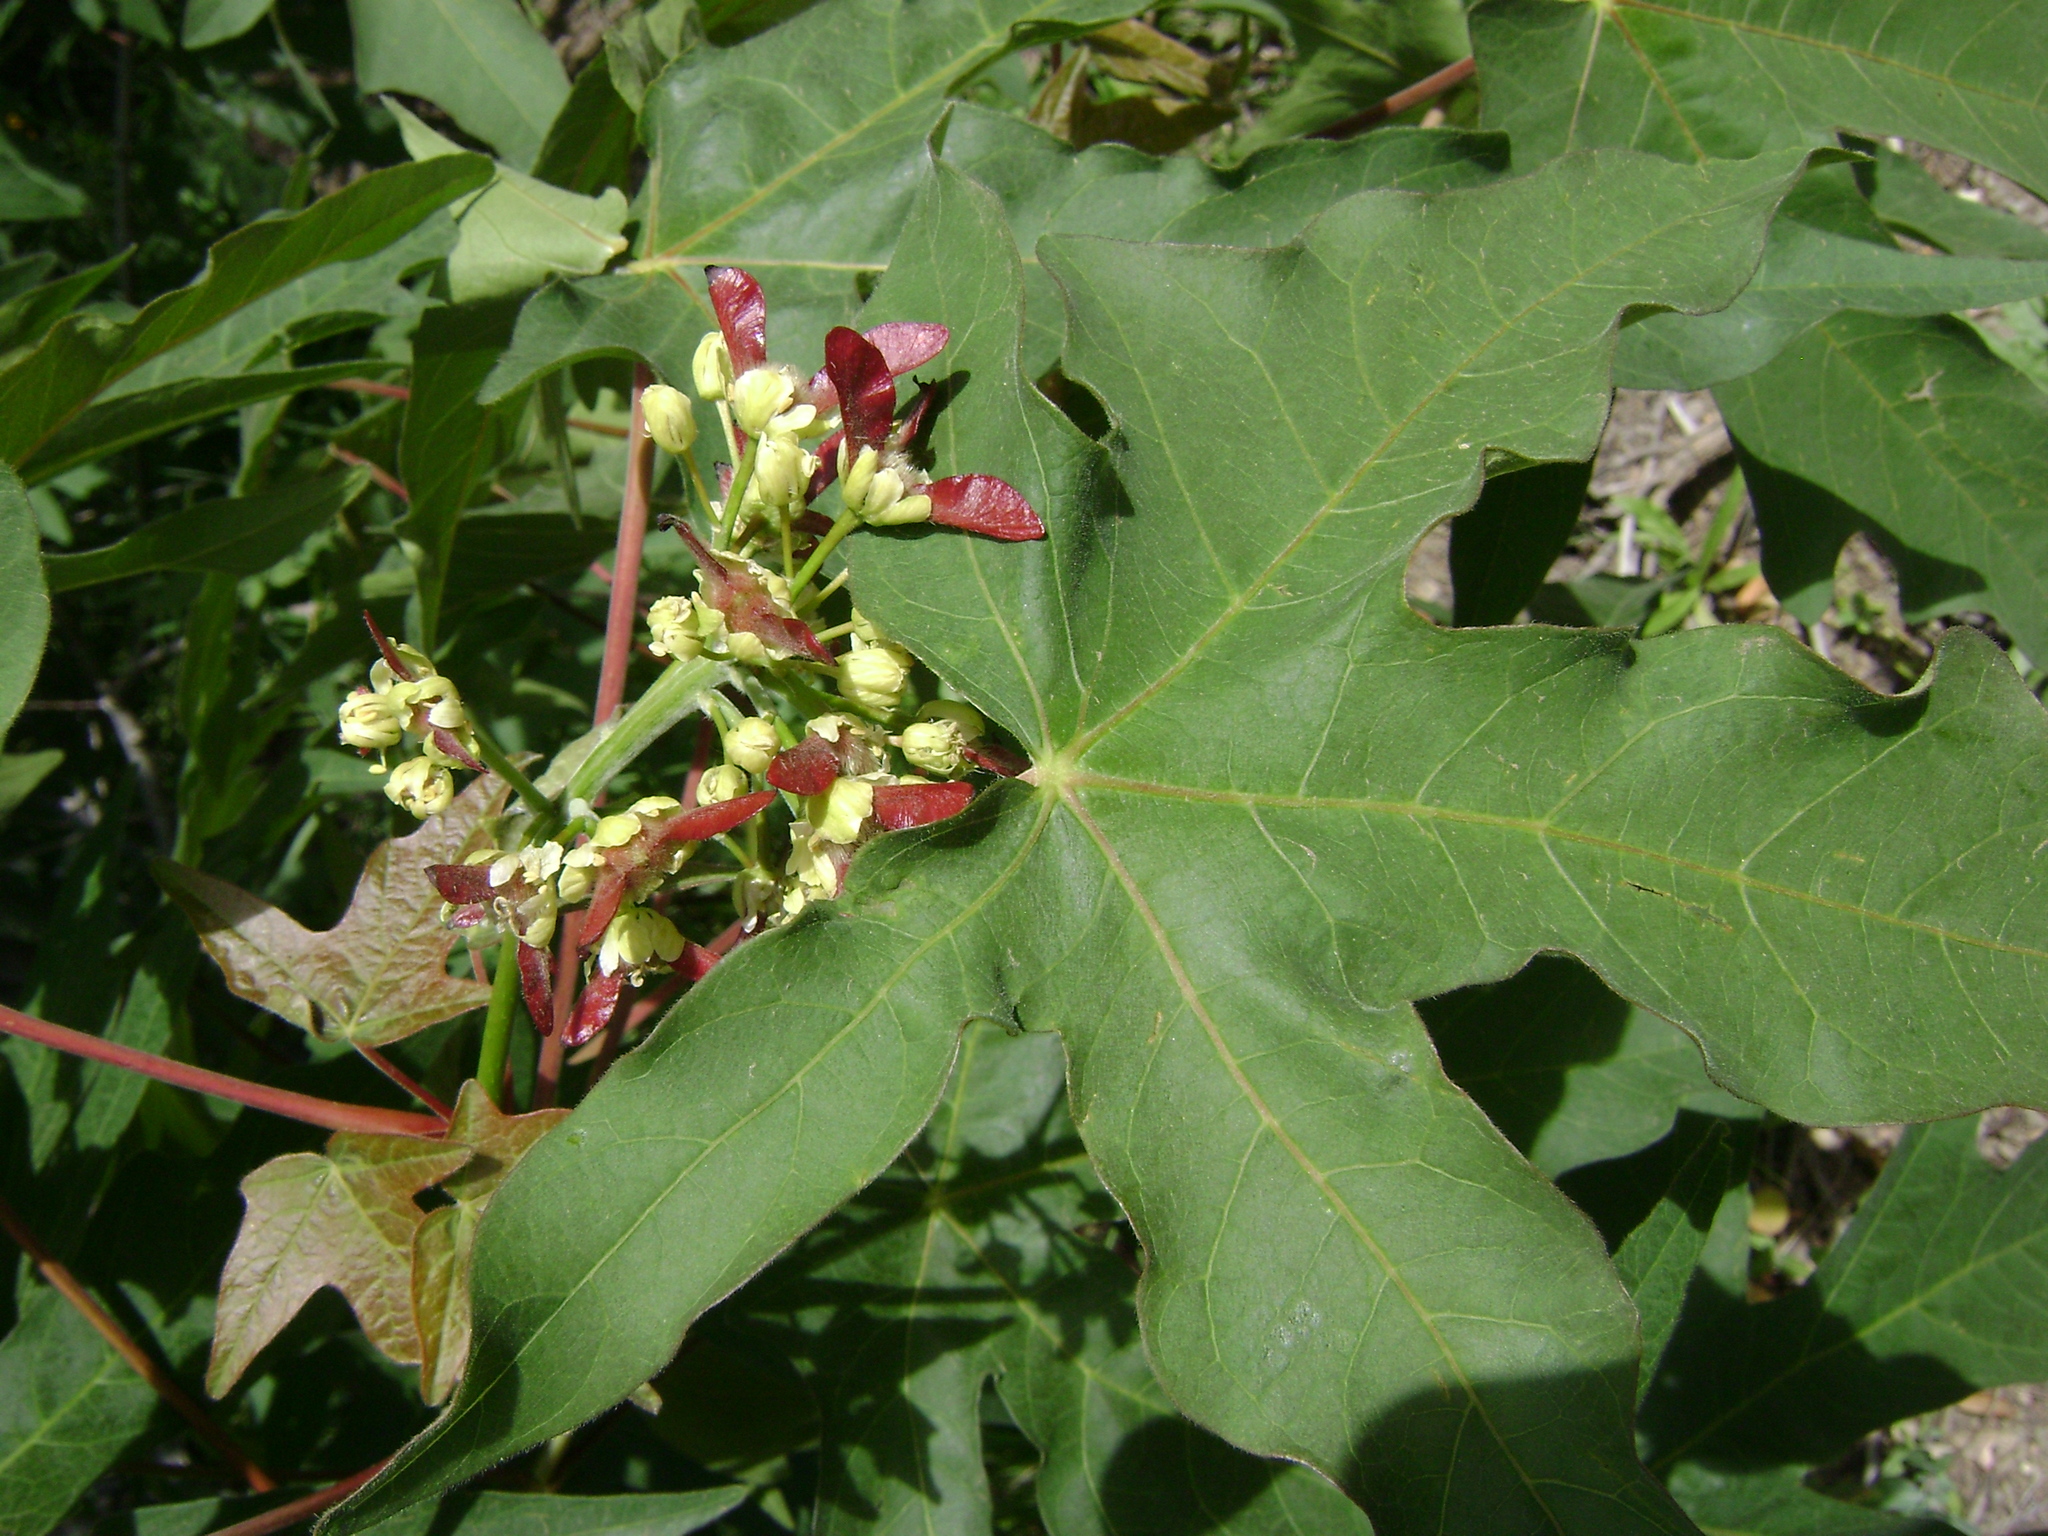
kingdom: Plantae
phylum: Tracheophyta
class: Magnoliopsida
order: Sapindales
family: Sapindaceae
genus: Acer
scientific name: Acer macrophyllum
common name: Oregon maple
